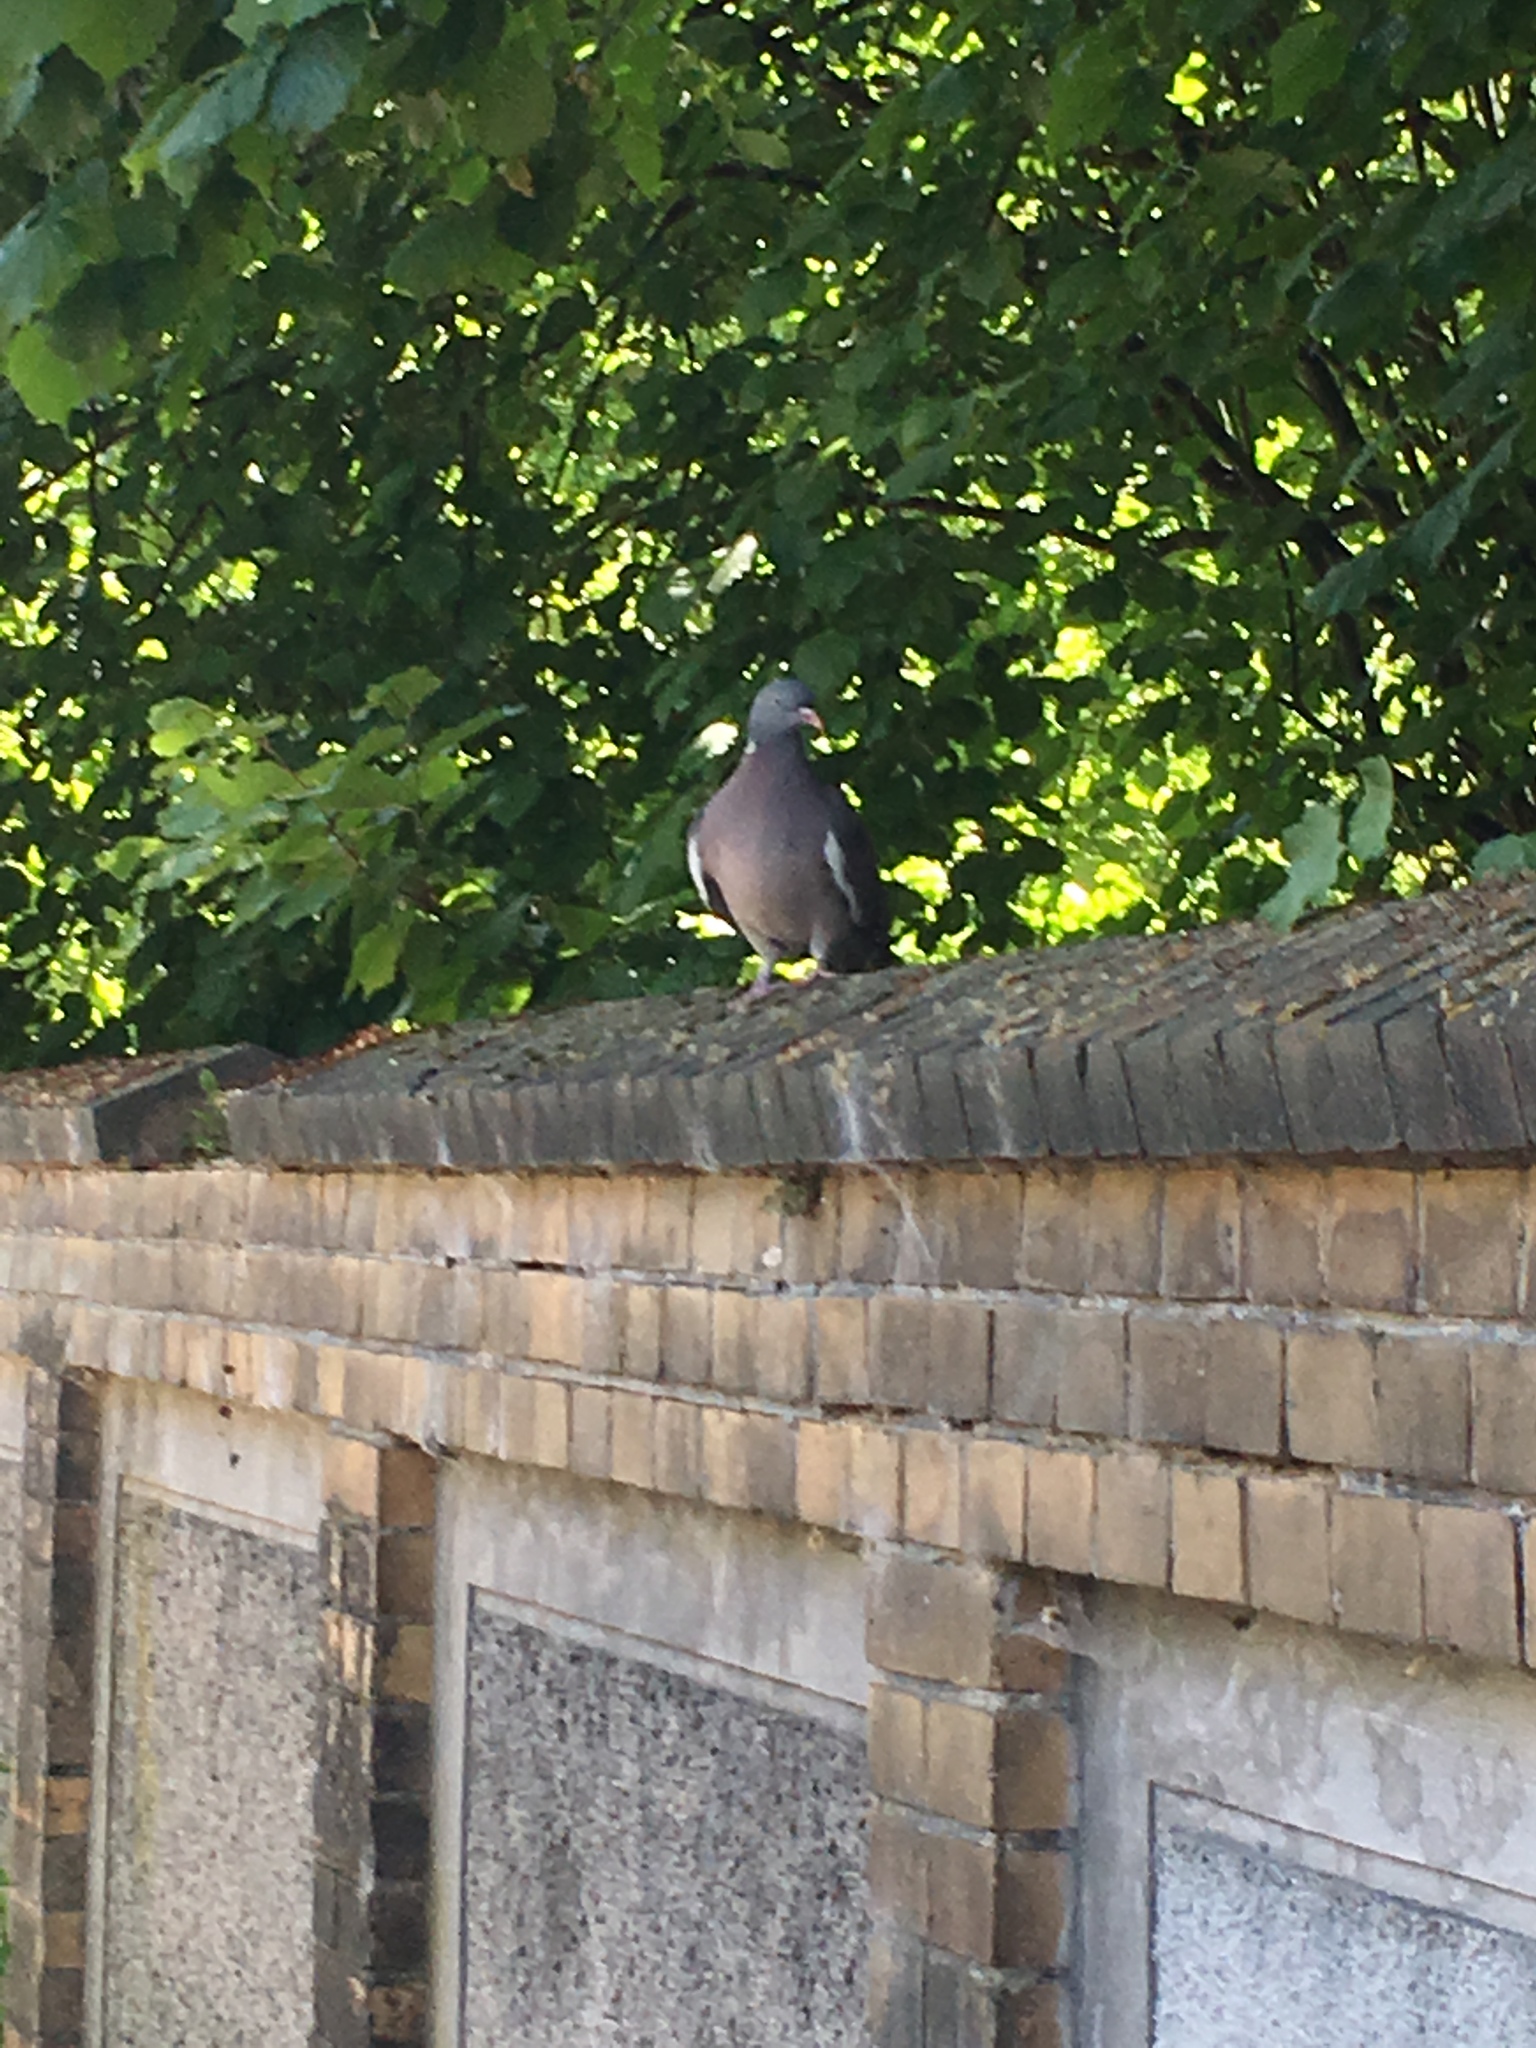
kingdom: Animalia
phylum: Chordata
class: Aves
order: Columbiformes
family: Columbidae
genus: Columba
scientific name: Columba palumbus
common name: Common wood pigeon
